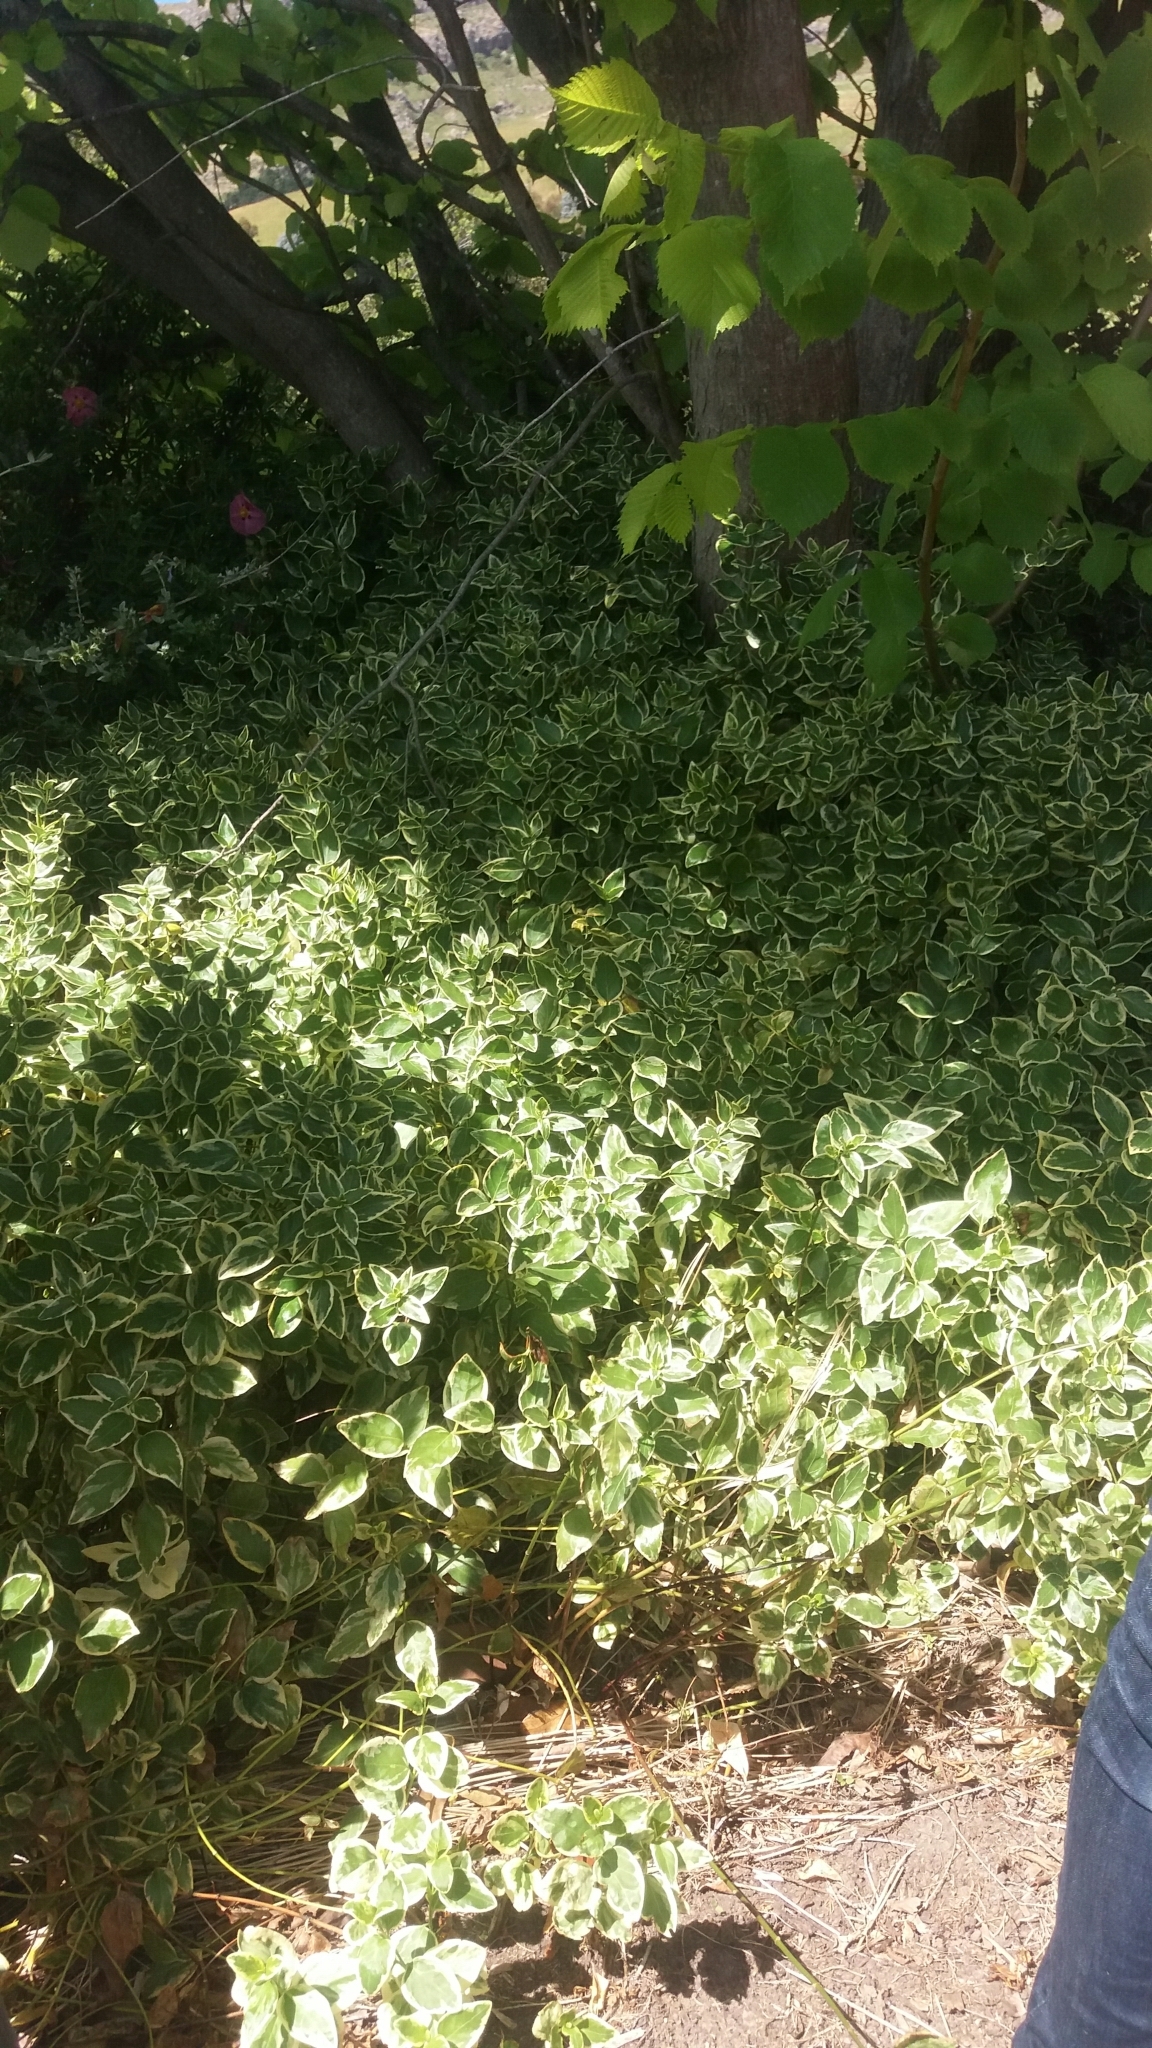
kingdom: Plantae
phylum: Tracheophyta
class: Magnoliopsida
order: Gentianales
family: Apocynaceae
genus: Vinca
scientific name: Vinca major
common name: Greater periwinkle
